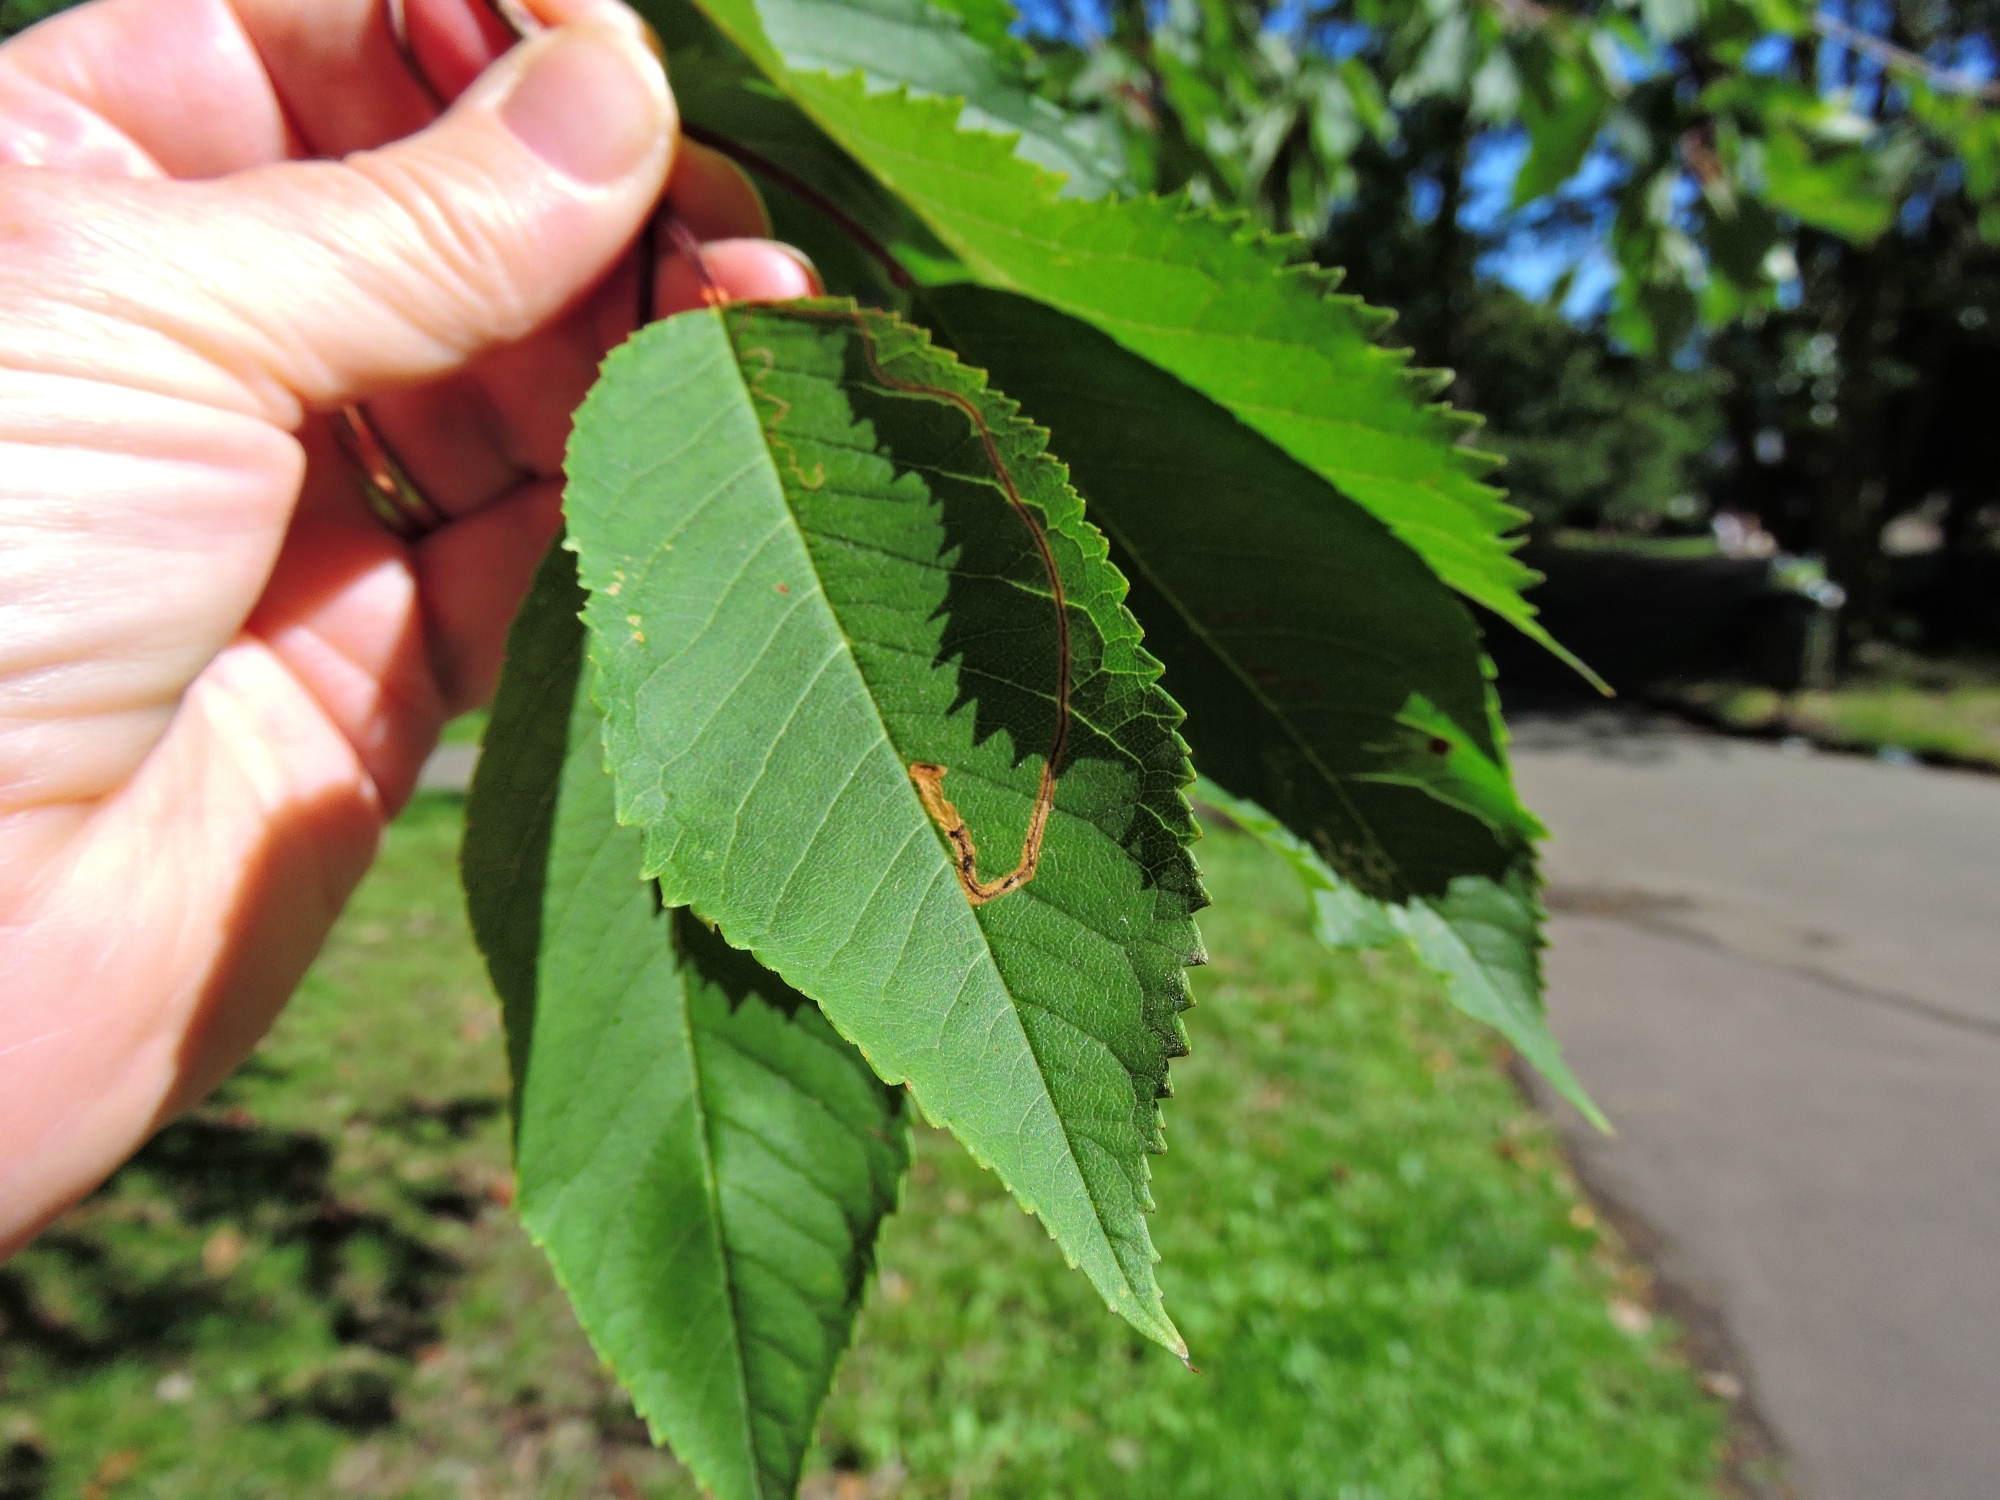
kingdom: Animalia
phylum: Arthropoda
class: Insecta
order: Lepidoptera
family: Lyonetiidae
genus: Lyonetia
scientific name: Lyonetia clerkella
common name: Apple leaf miner
